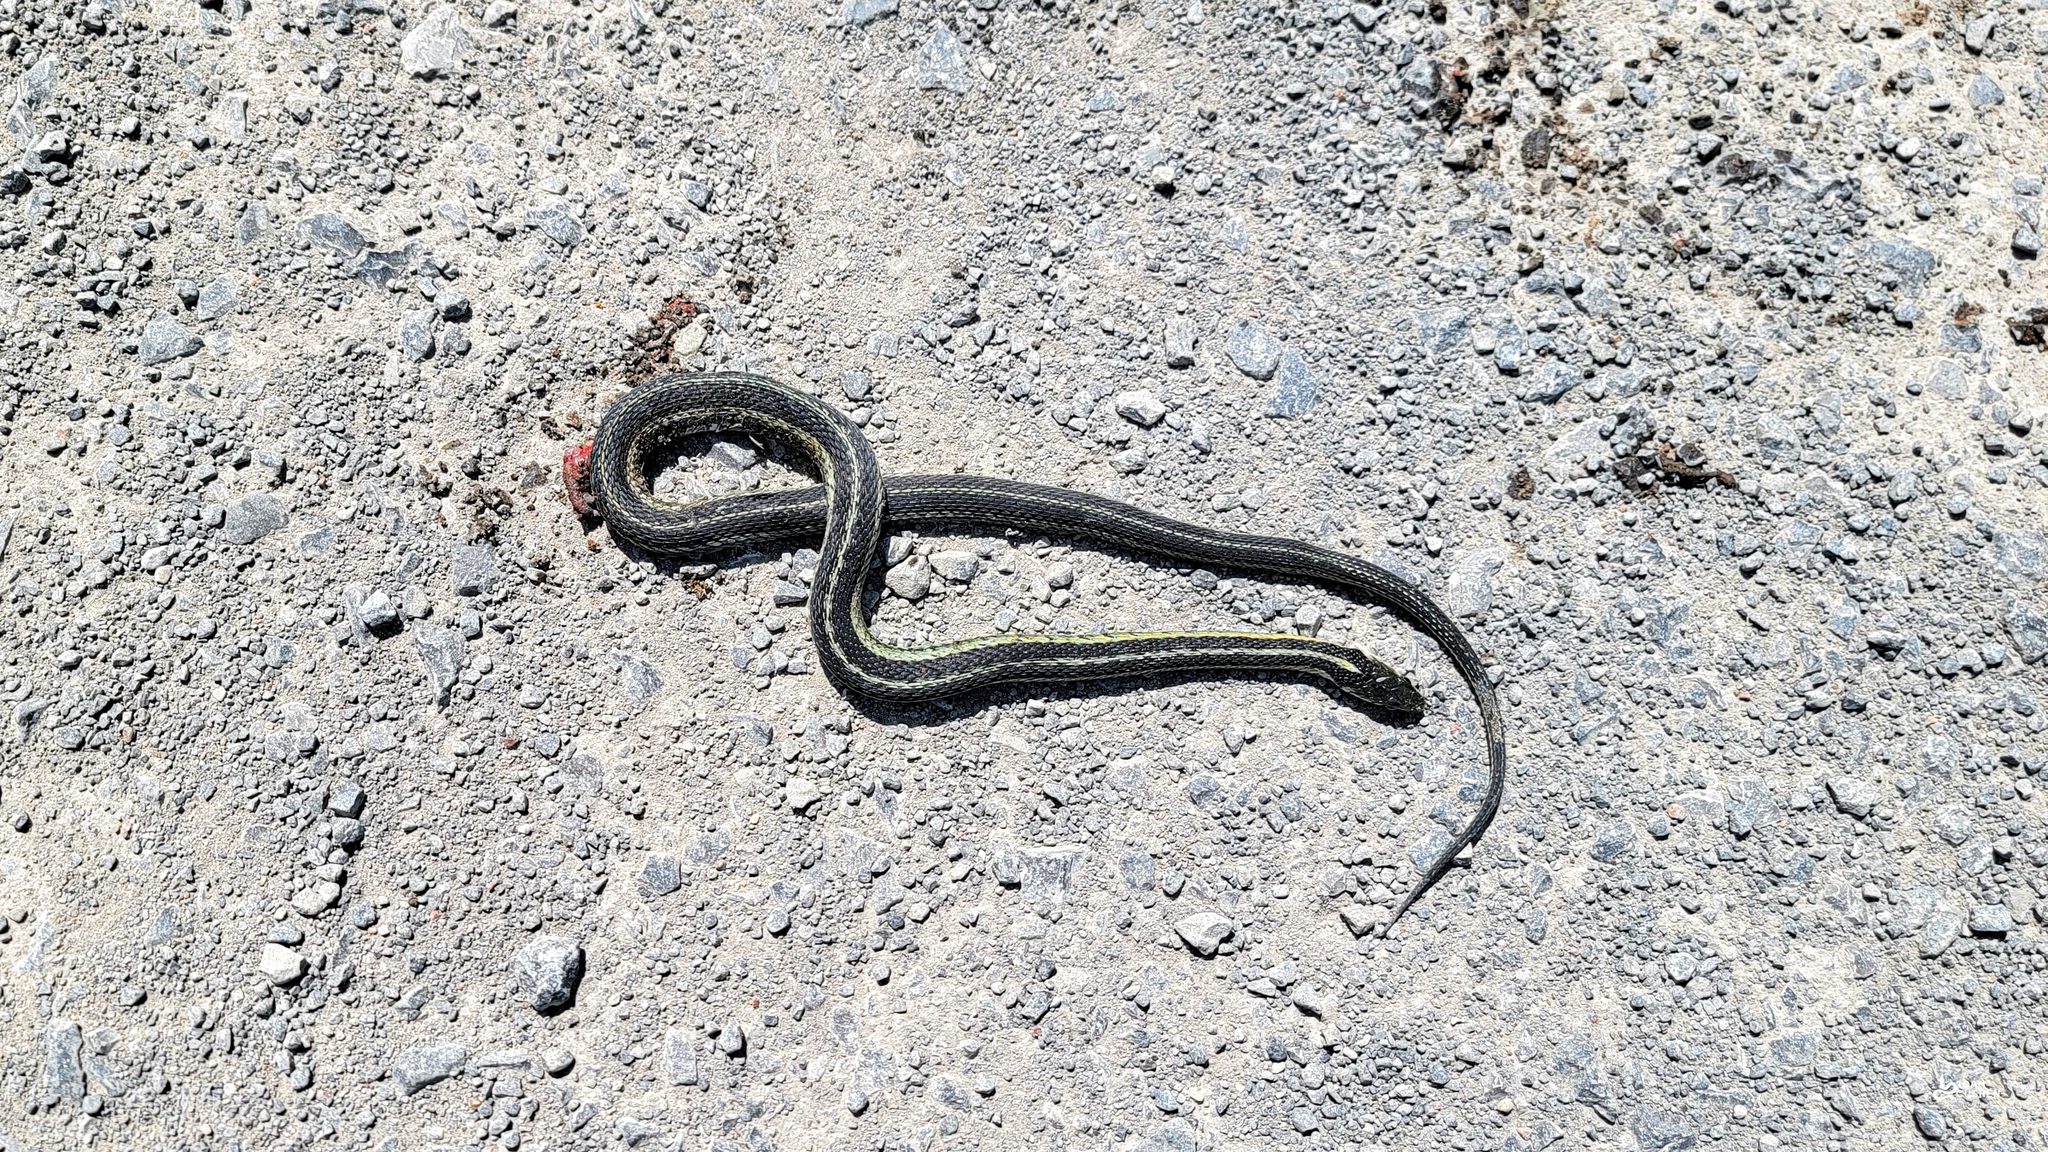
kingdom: Animalia
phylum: Chordata
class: Squamata
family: Colubridae
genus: Thamnophis
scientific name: Thamnophis sirtalis
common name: Common garter snake
